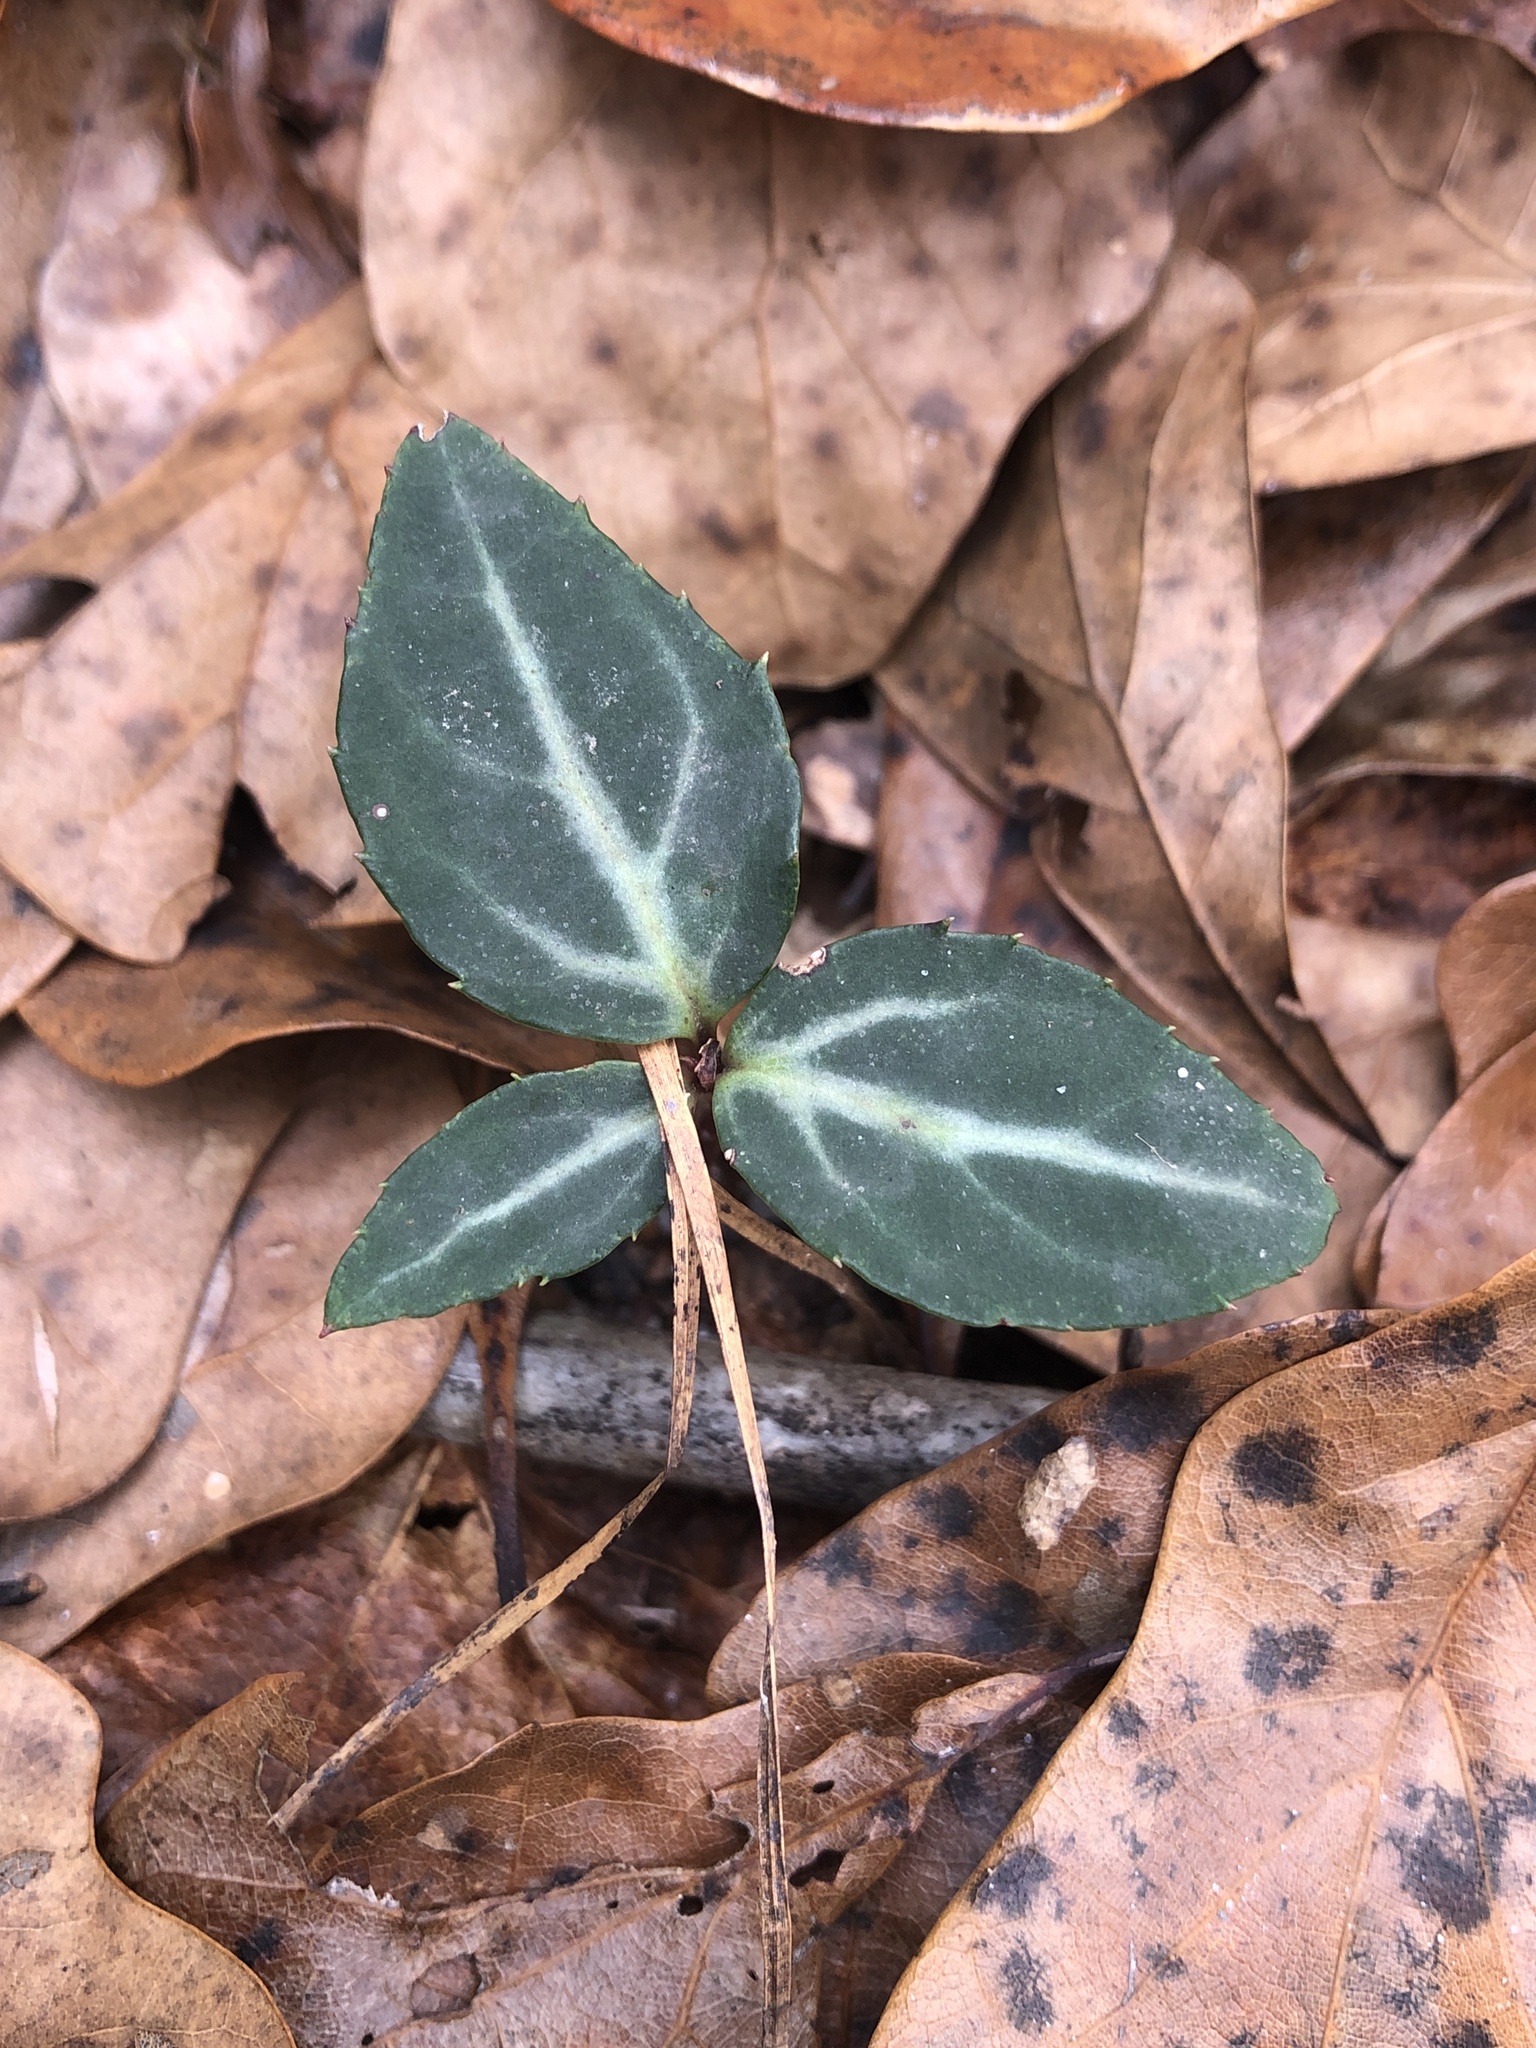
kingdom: Plantae
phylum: Tracheophyta
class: Magnoliopsida
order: Ericales
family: Ericaceae
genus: Chimaphila
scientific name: Chimaphila maculata
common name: Spotted pipsissewa
